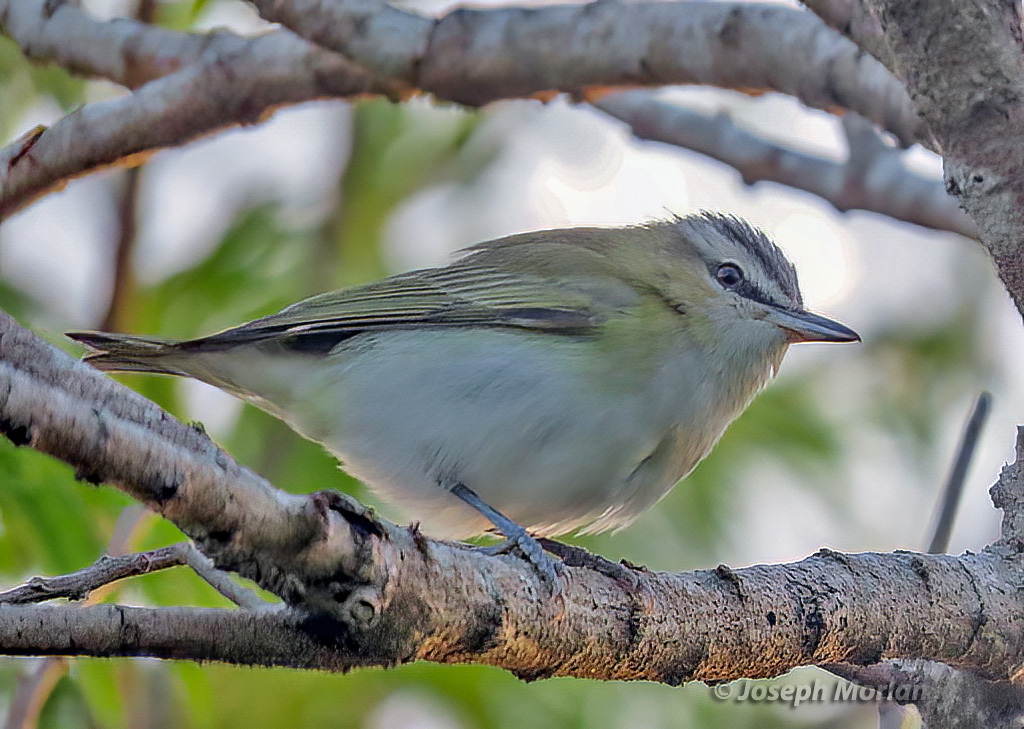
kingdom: Animalia
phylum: Chordata
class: Aves
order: Passeriformes
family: Vireonidae
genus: Vireo
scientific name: Vireo olivaceus
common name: Red-eyed vireo
